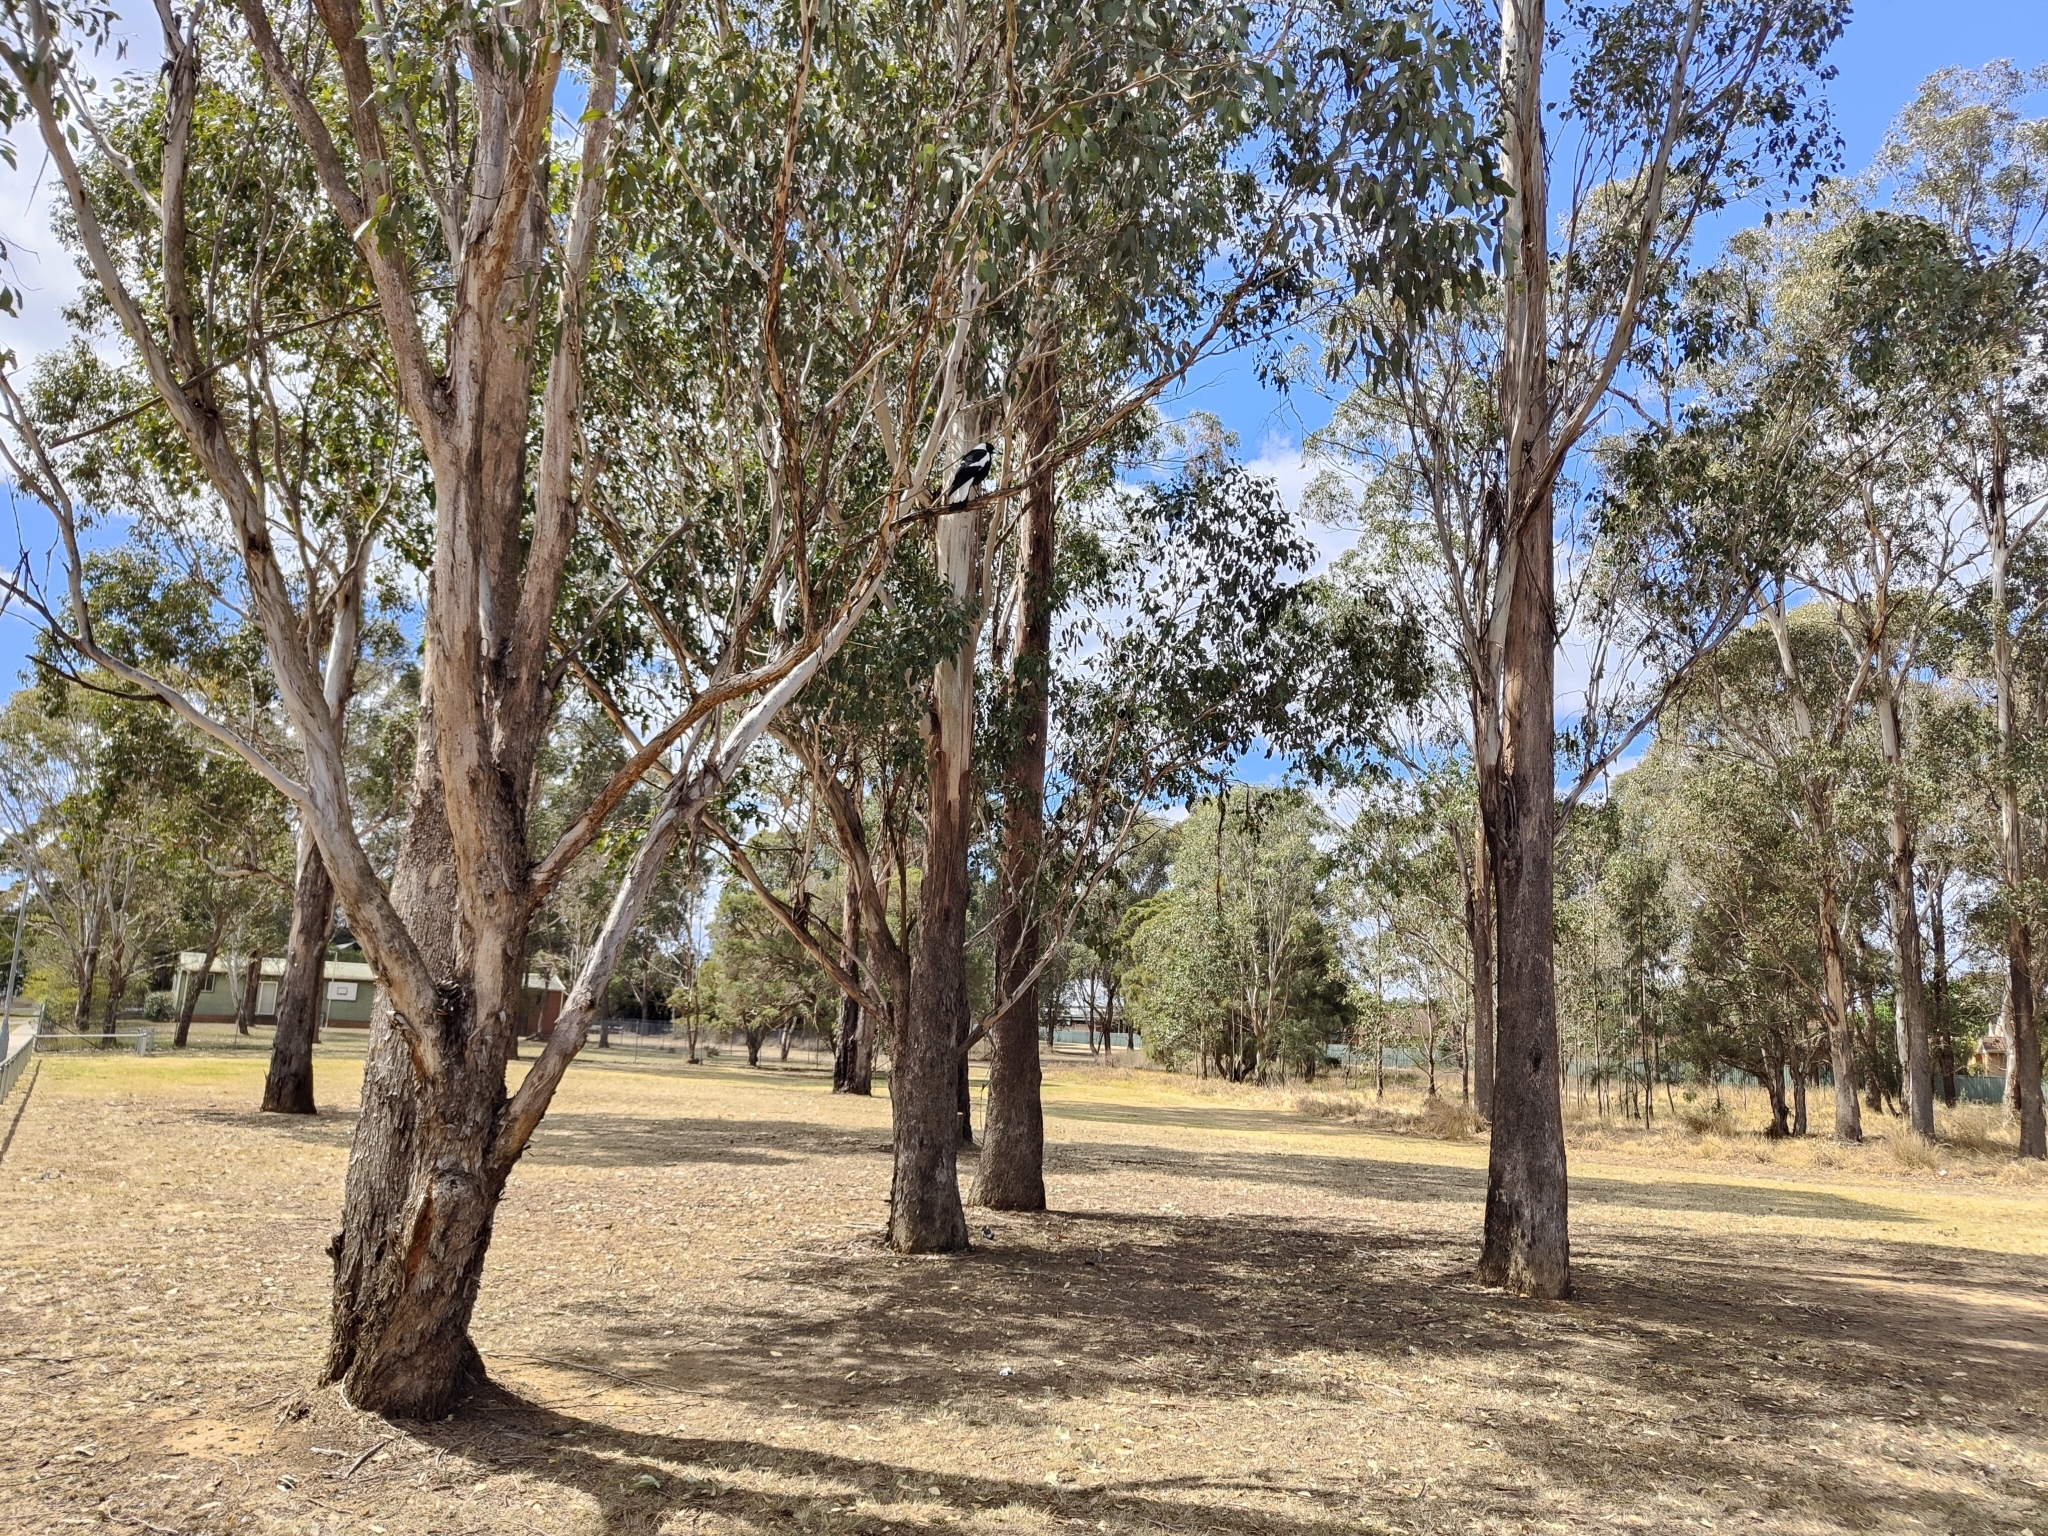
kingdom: Animalia
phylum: Chordata
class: Aves
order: Passeriformes
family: Cracticidae
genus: Gymnorhina
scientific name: Gymnorhina tibicen
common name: Australian magpie
